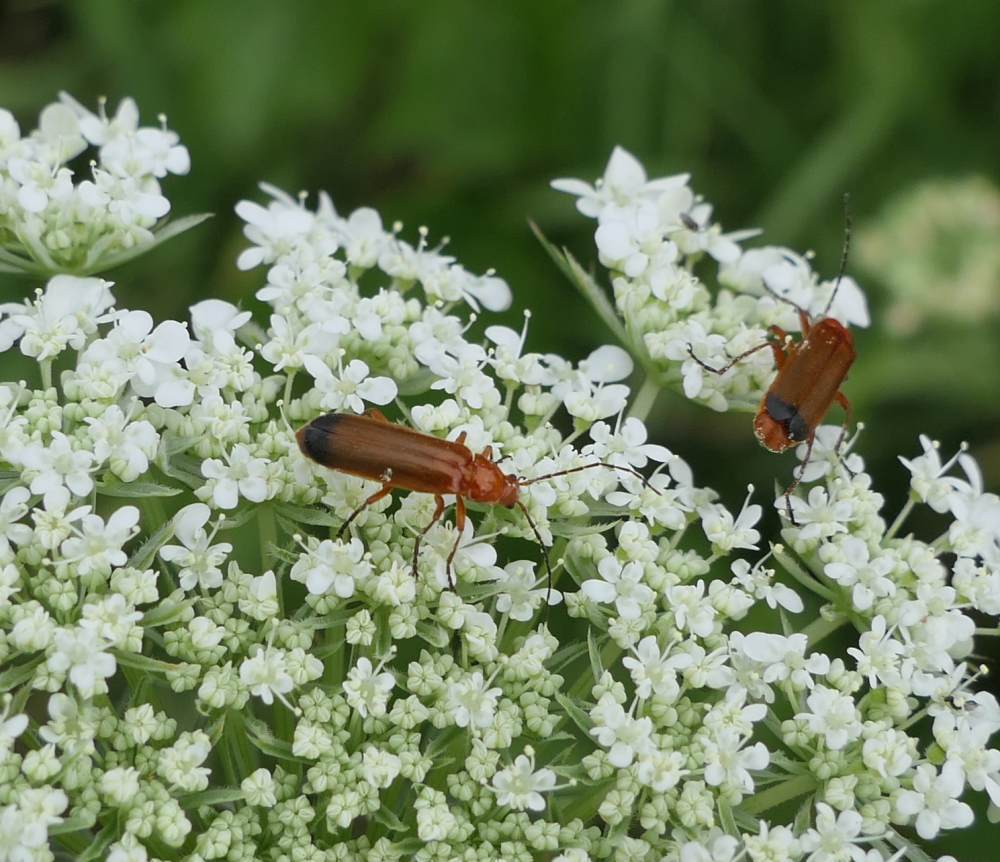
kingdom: Animalia
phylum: Arthropoda
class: Insecta
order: Coleoptera
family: Cantharidae
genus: Rhagonycha
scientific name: Rhagonycha fulva
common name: Common red soldier beetle
